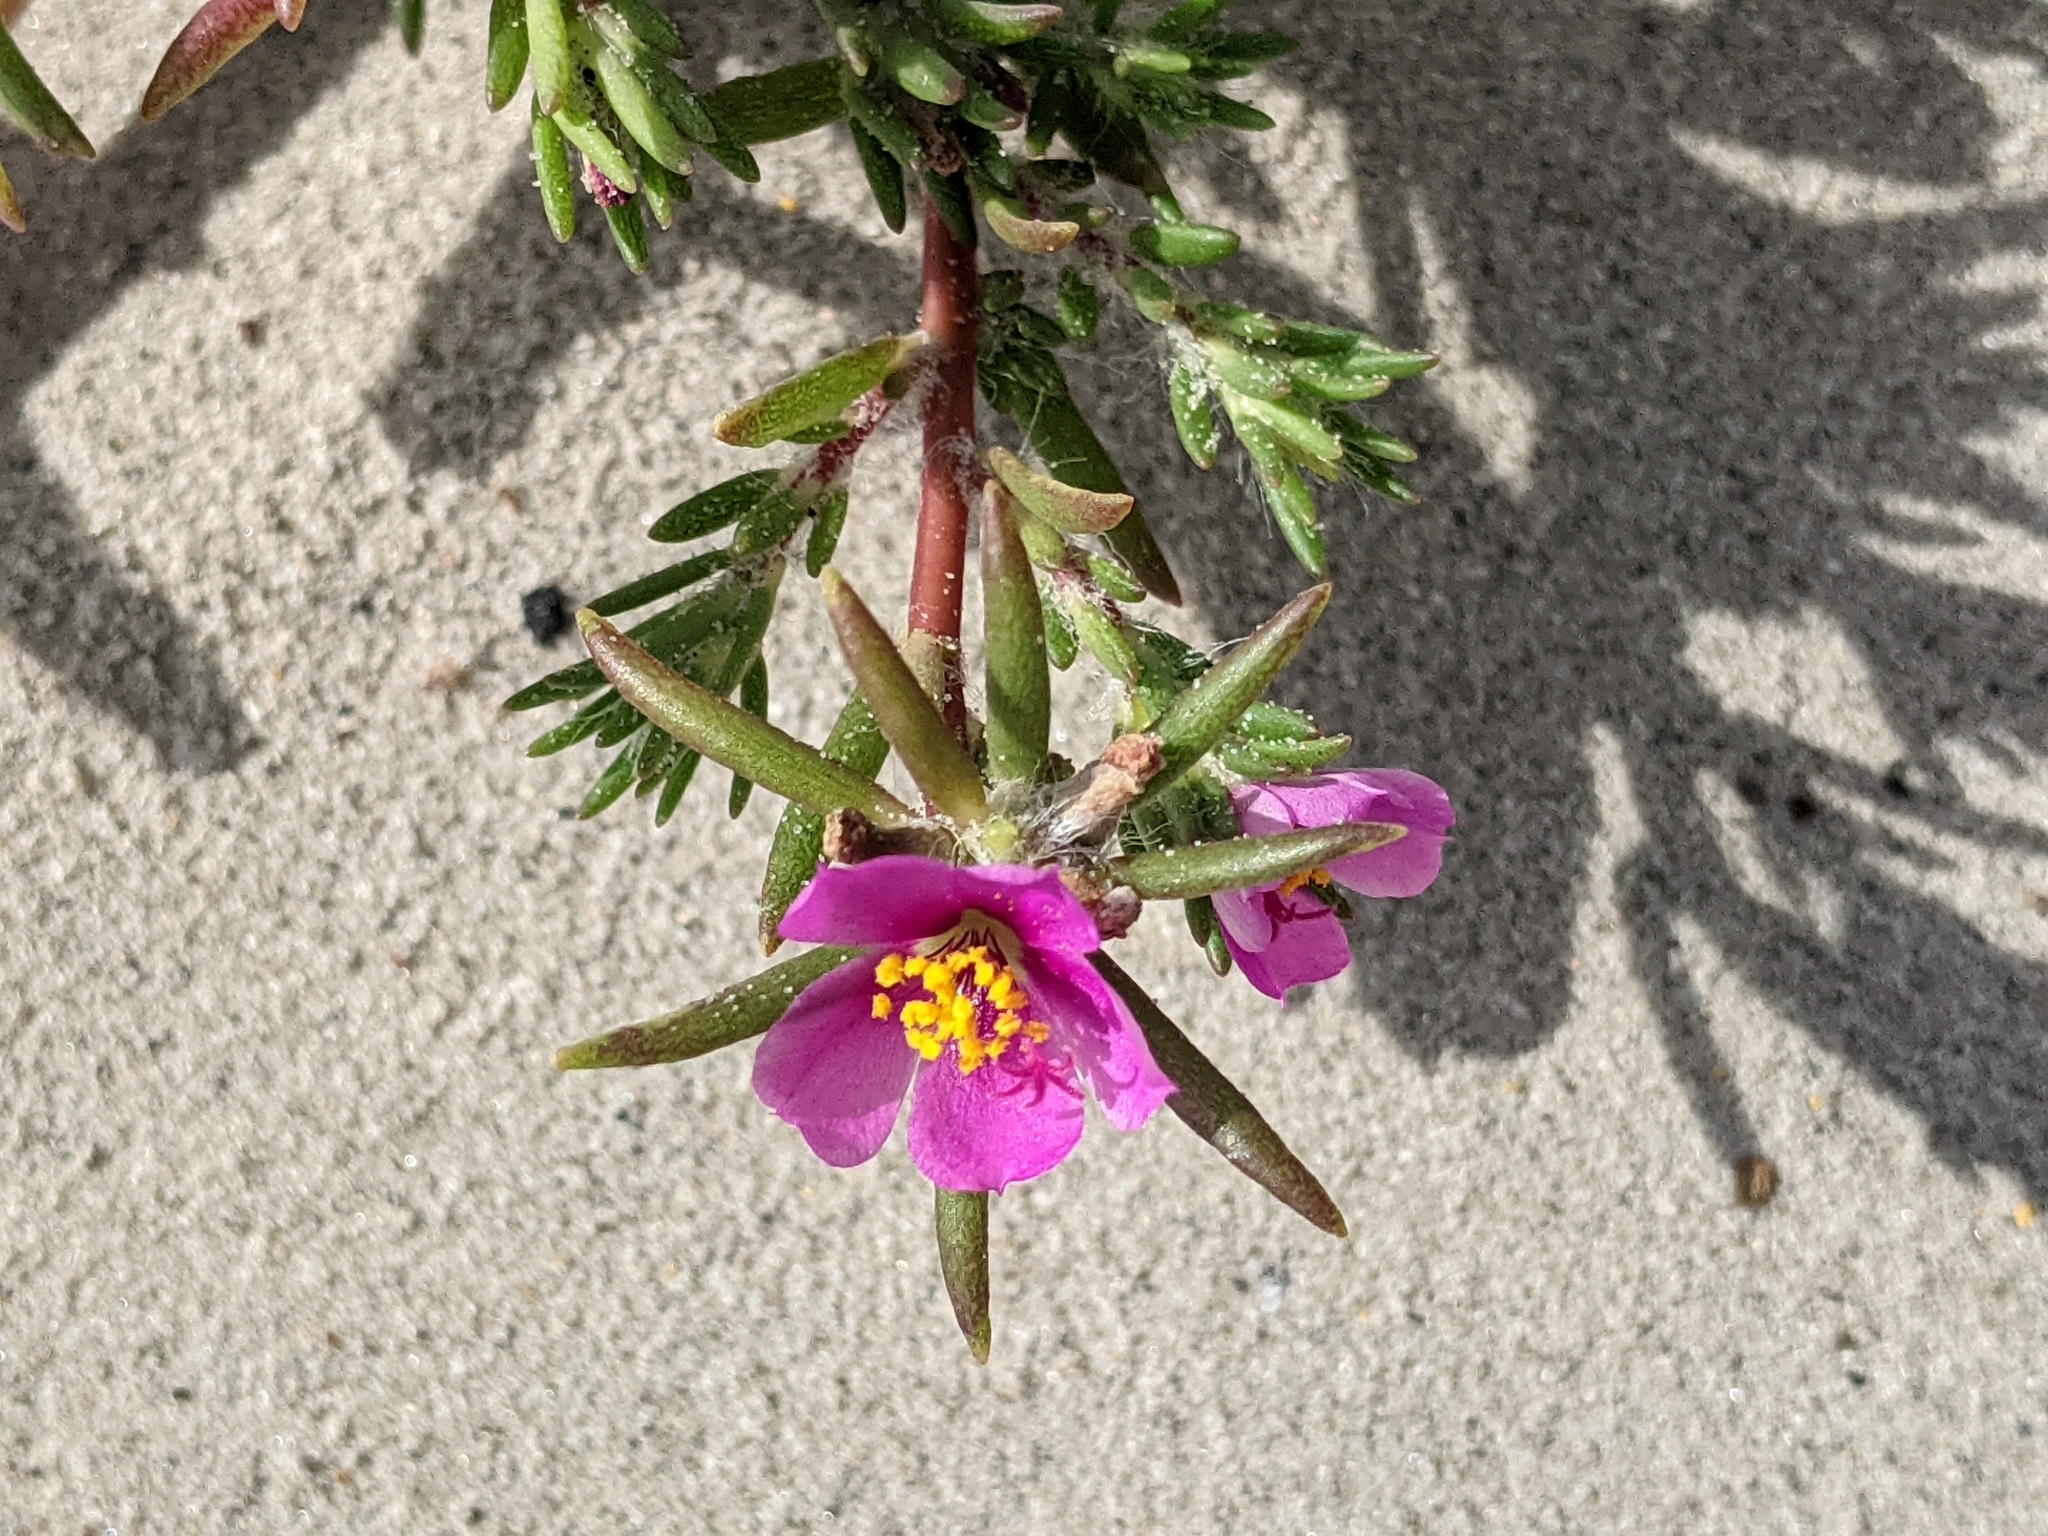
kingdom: Plantae
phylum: Tracheophyta
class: Magnoliopsida
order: Caryophyllales
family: Portulacaceae
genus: Portulaca
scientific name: Portulaca pilosa
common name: Kiss me quick
